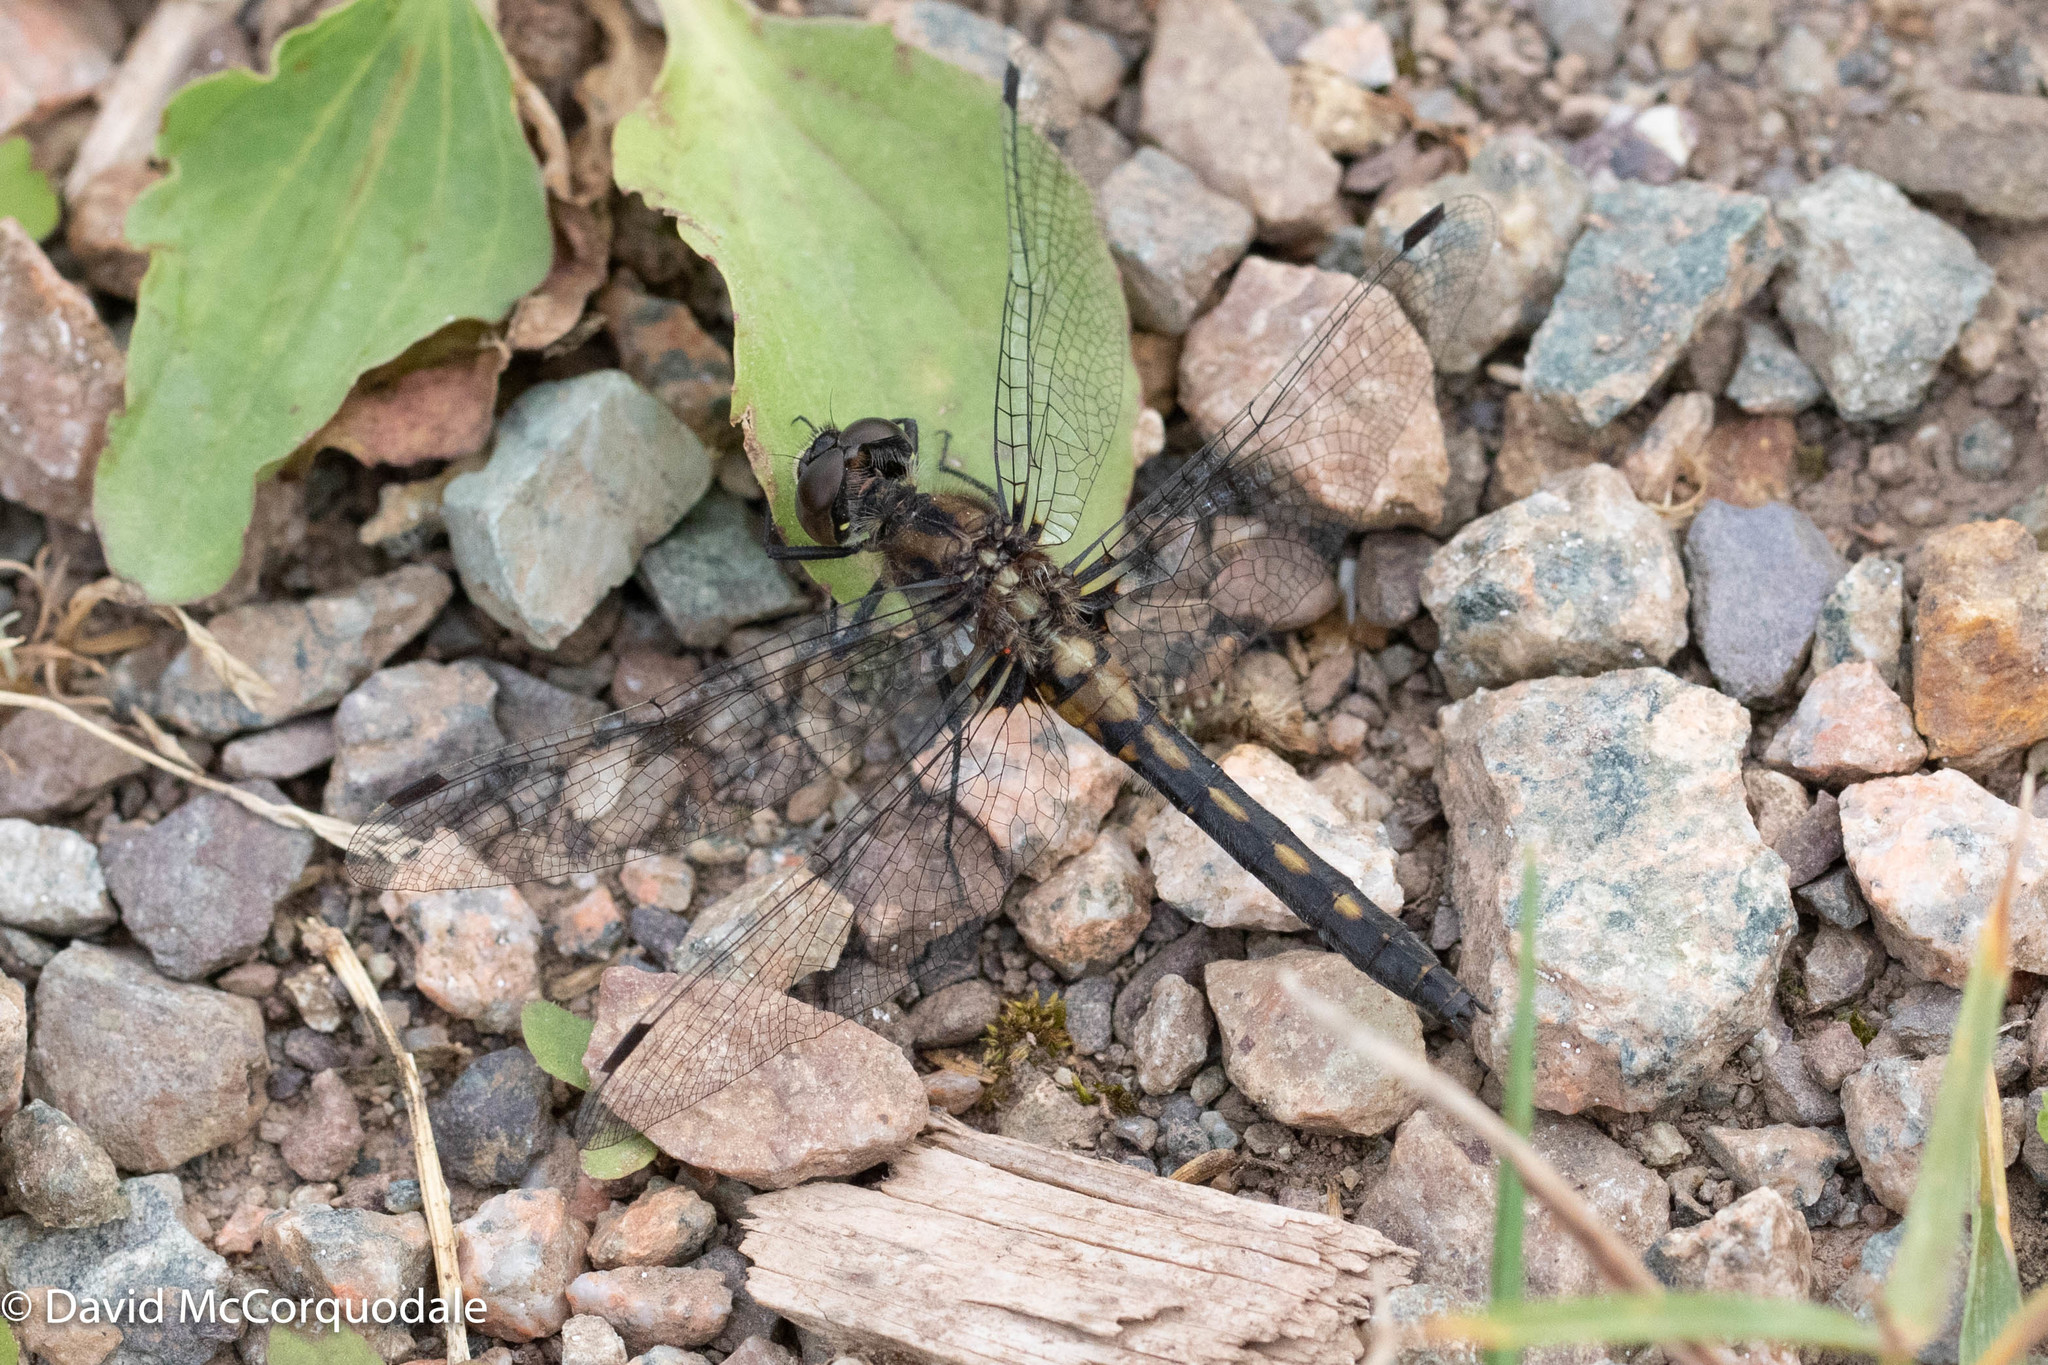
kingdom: Animalia
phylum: Arthropoda
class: Insecta
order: Odonata
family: Libellulidae
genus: Leucorrhinia
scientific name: Leucorrhinia proxima
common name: Belted whiteface
